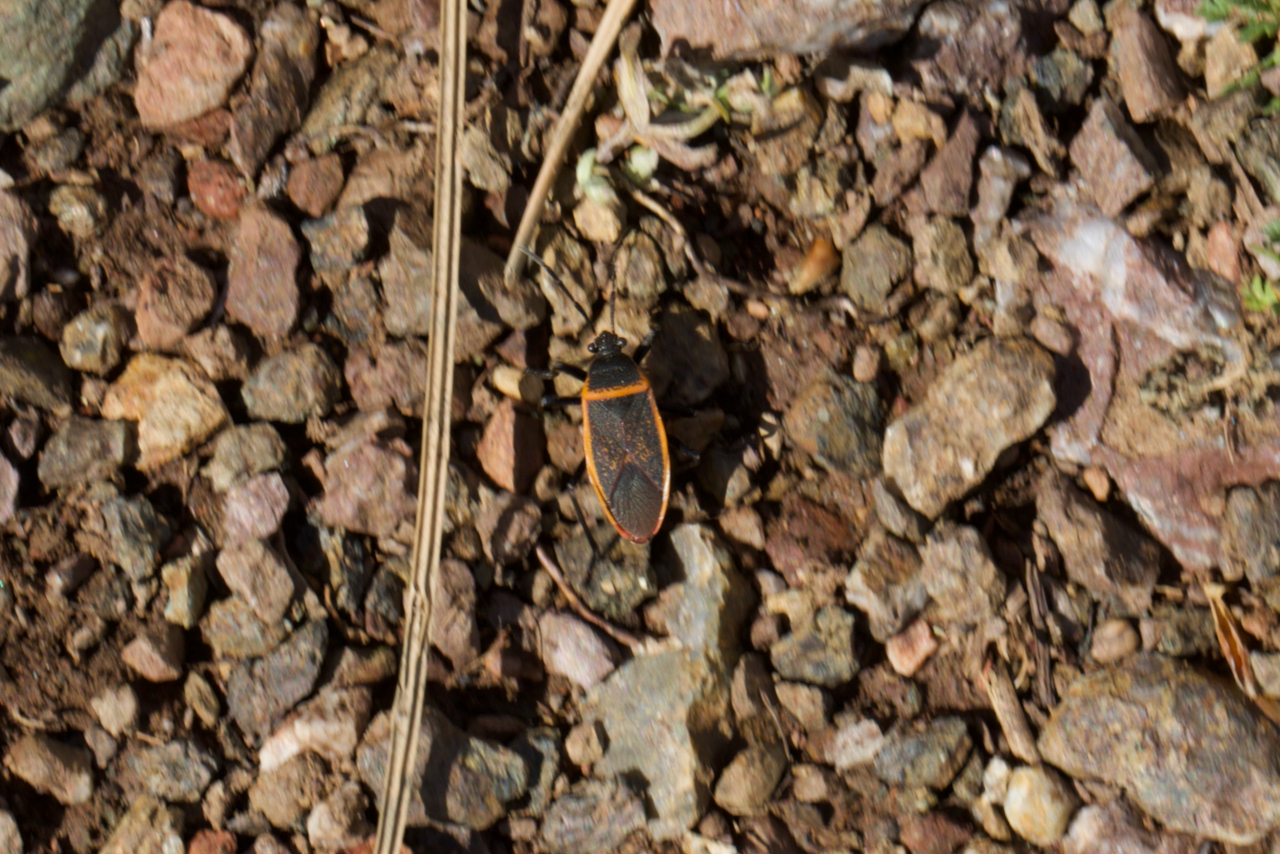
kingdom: Animalia
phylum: Arthropoda
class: Insecta
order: Hemiptera
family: Largidae
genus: Largus
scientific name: Largus californicus
